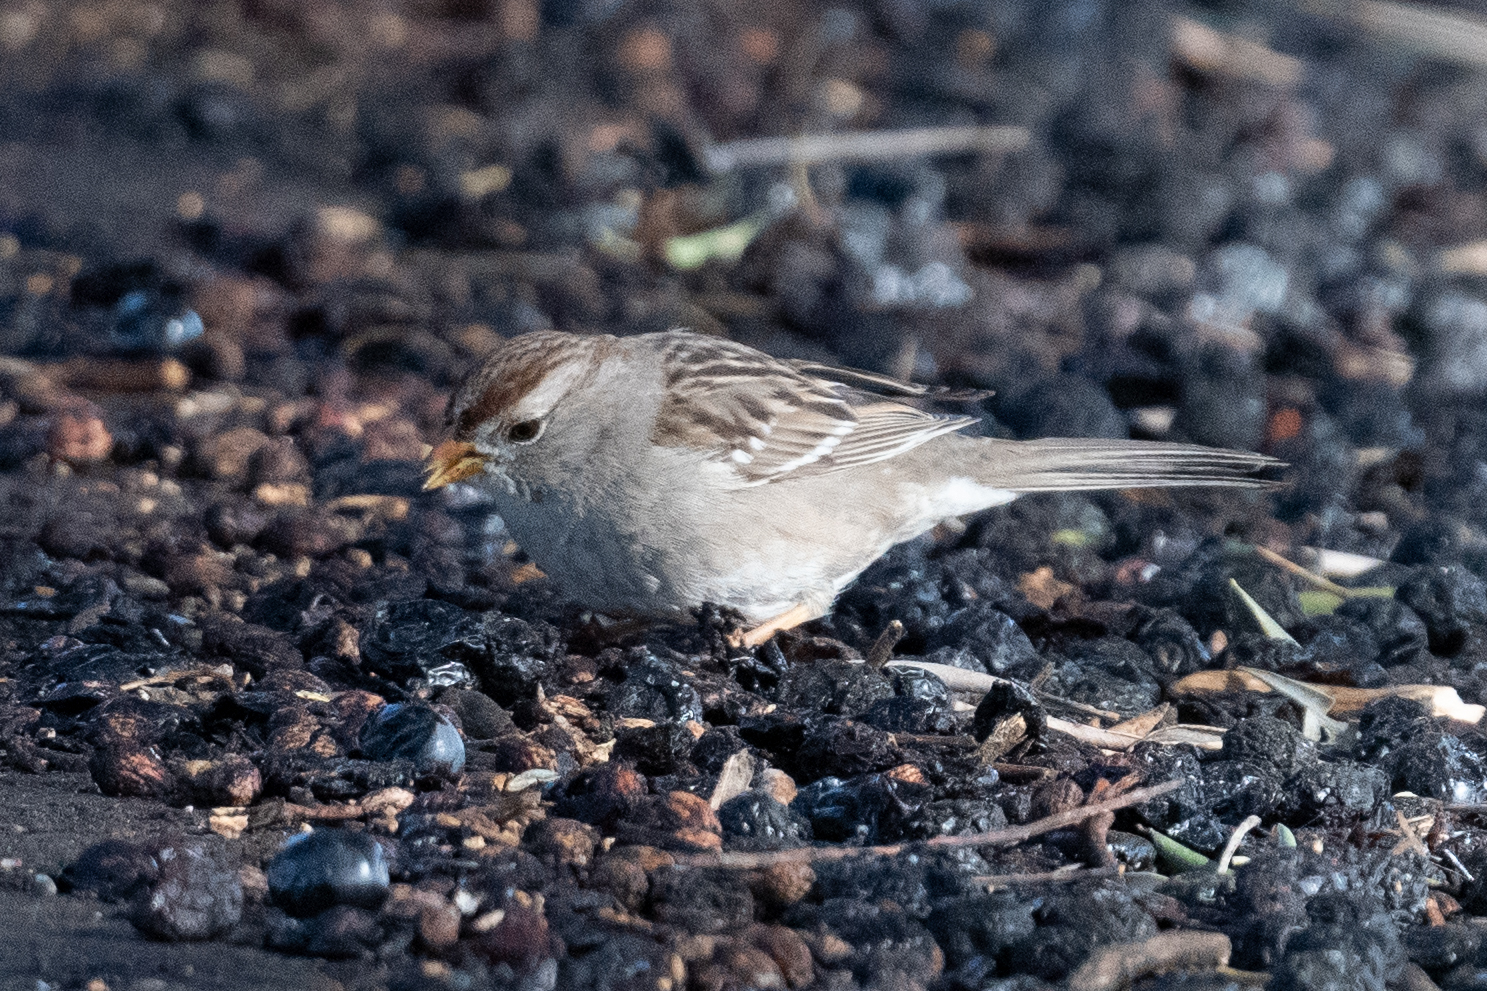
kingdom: Animalia
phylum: Chordata
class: Aves
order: Passeriformes
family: Passerellidae
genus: Zonotrichia
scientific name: Zonotrichia leucophrys
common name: White-crowned sparrow
